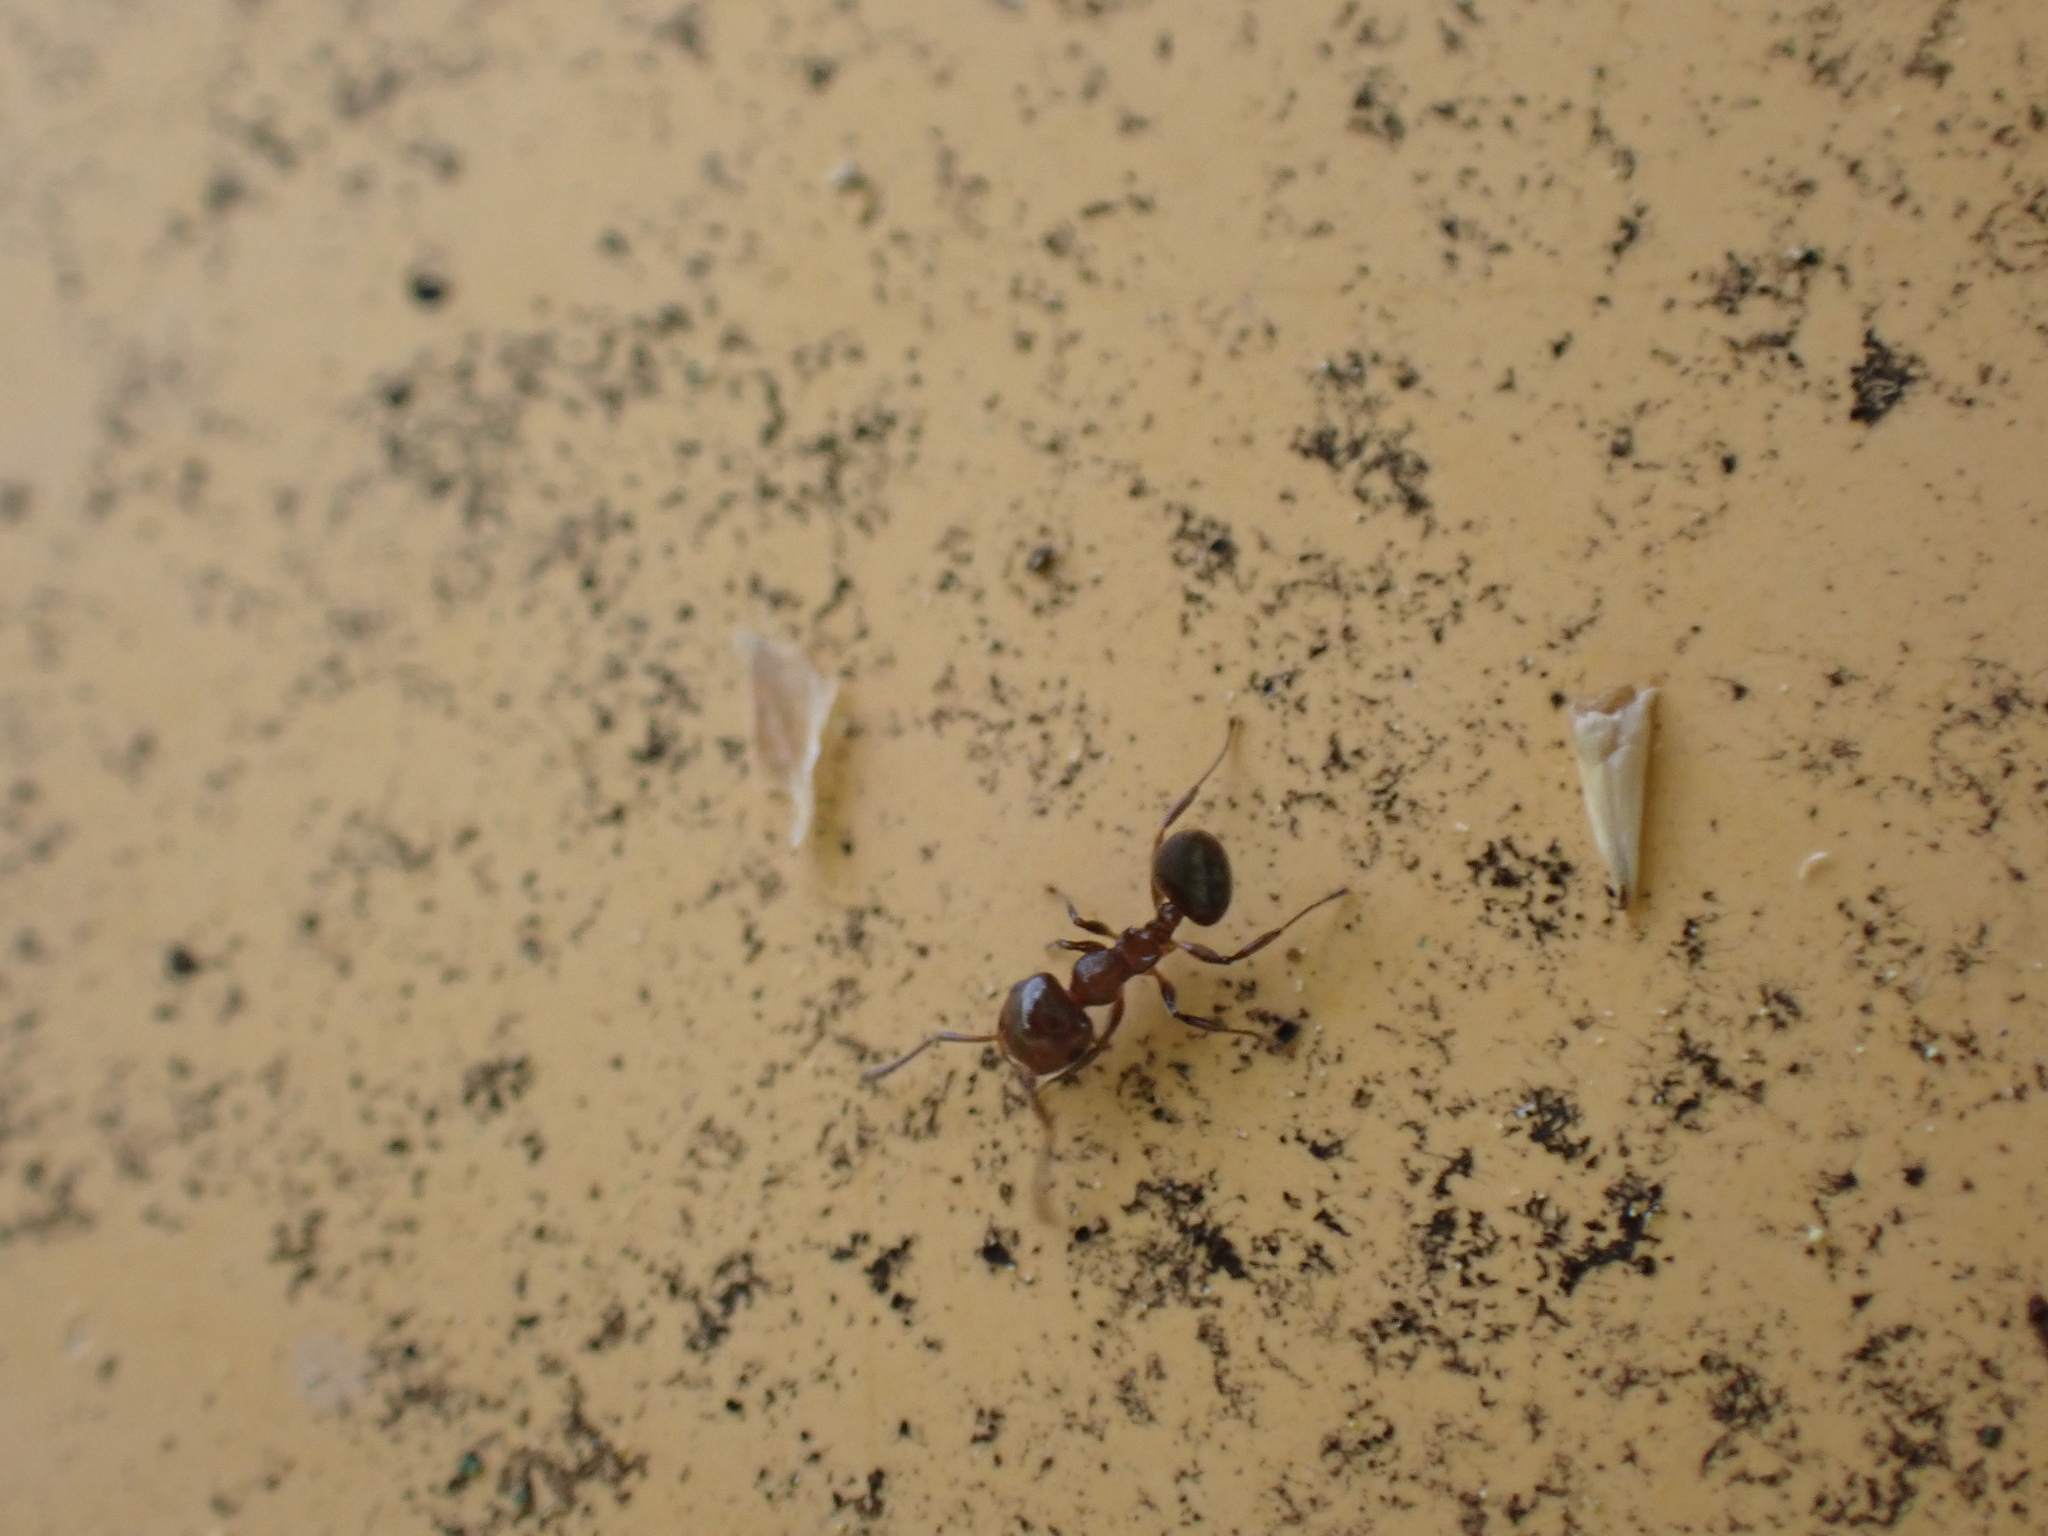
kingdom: Animalia
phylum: Arthropoda
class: Insecta
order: Hymenoptera
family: Formicidae
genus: Crematogaster
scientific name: Crematogaster ashmeadi
